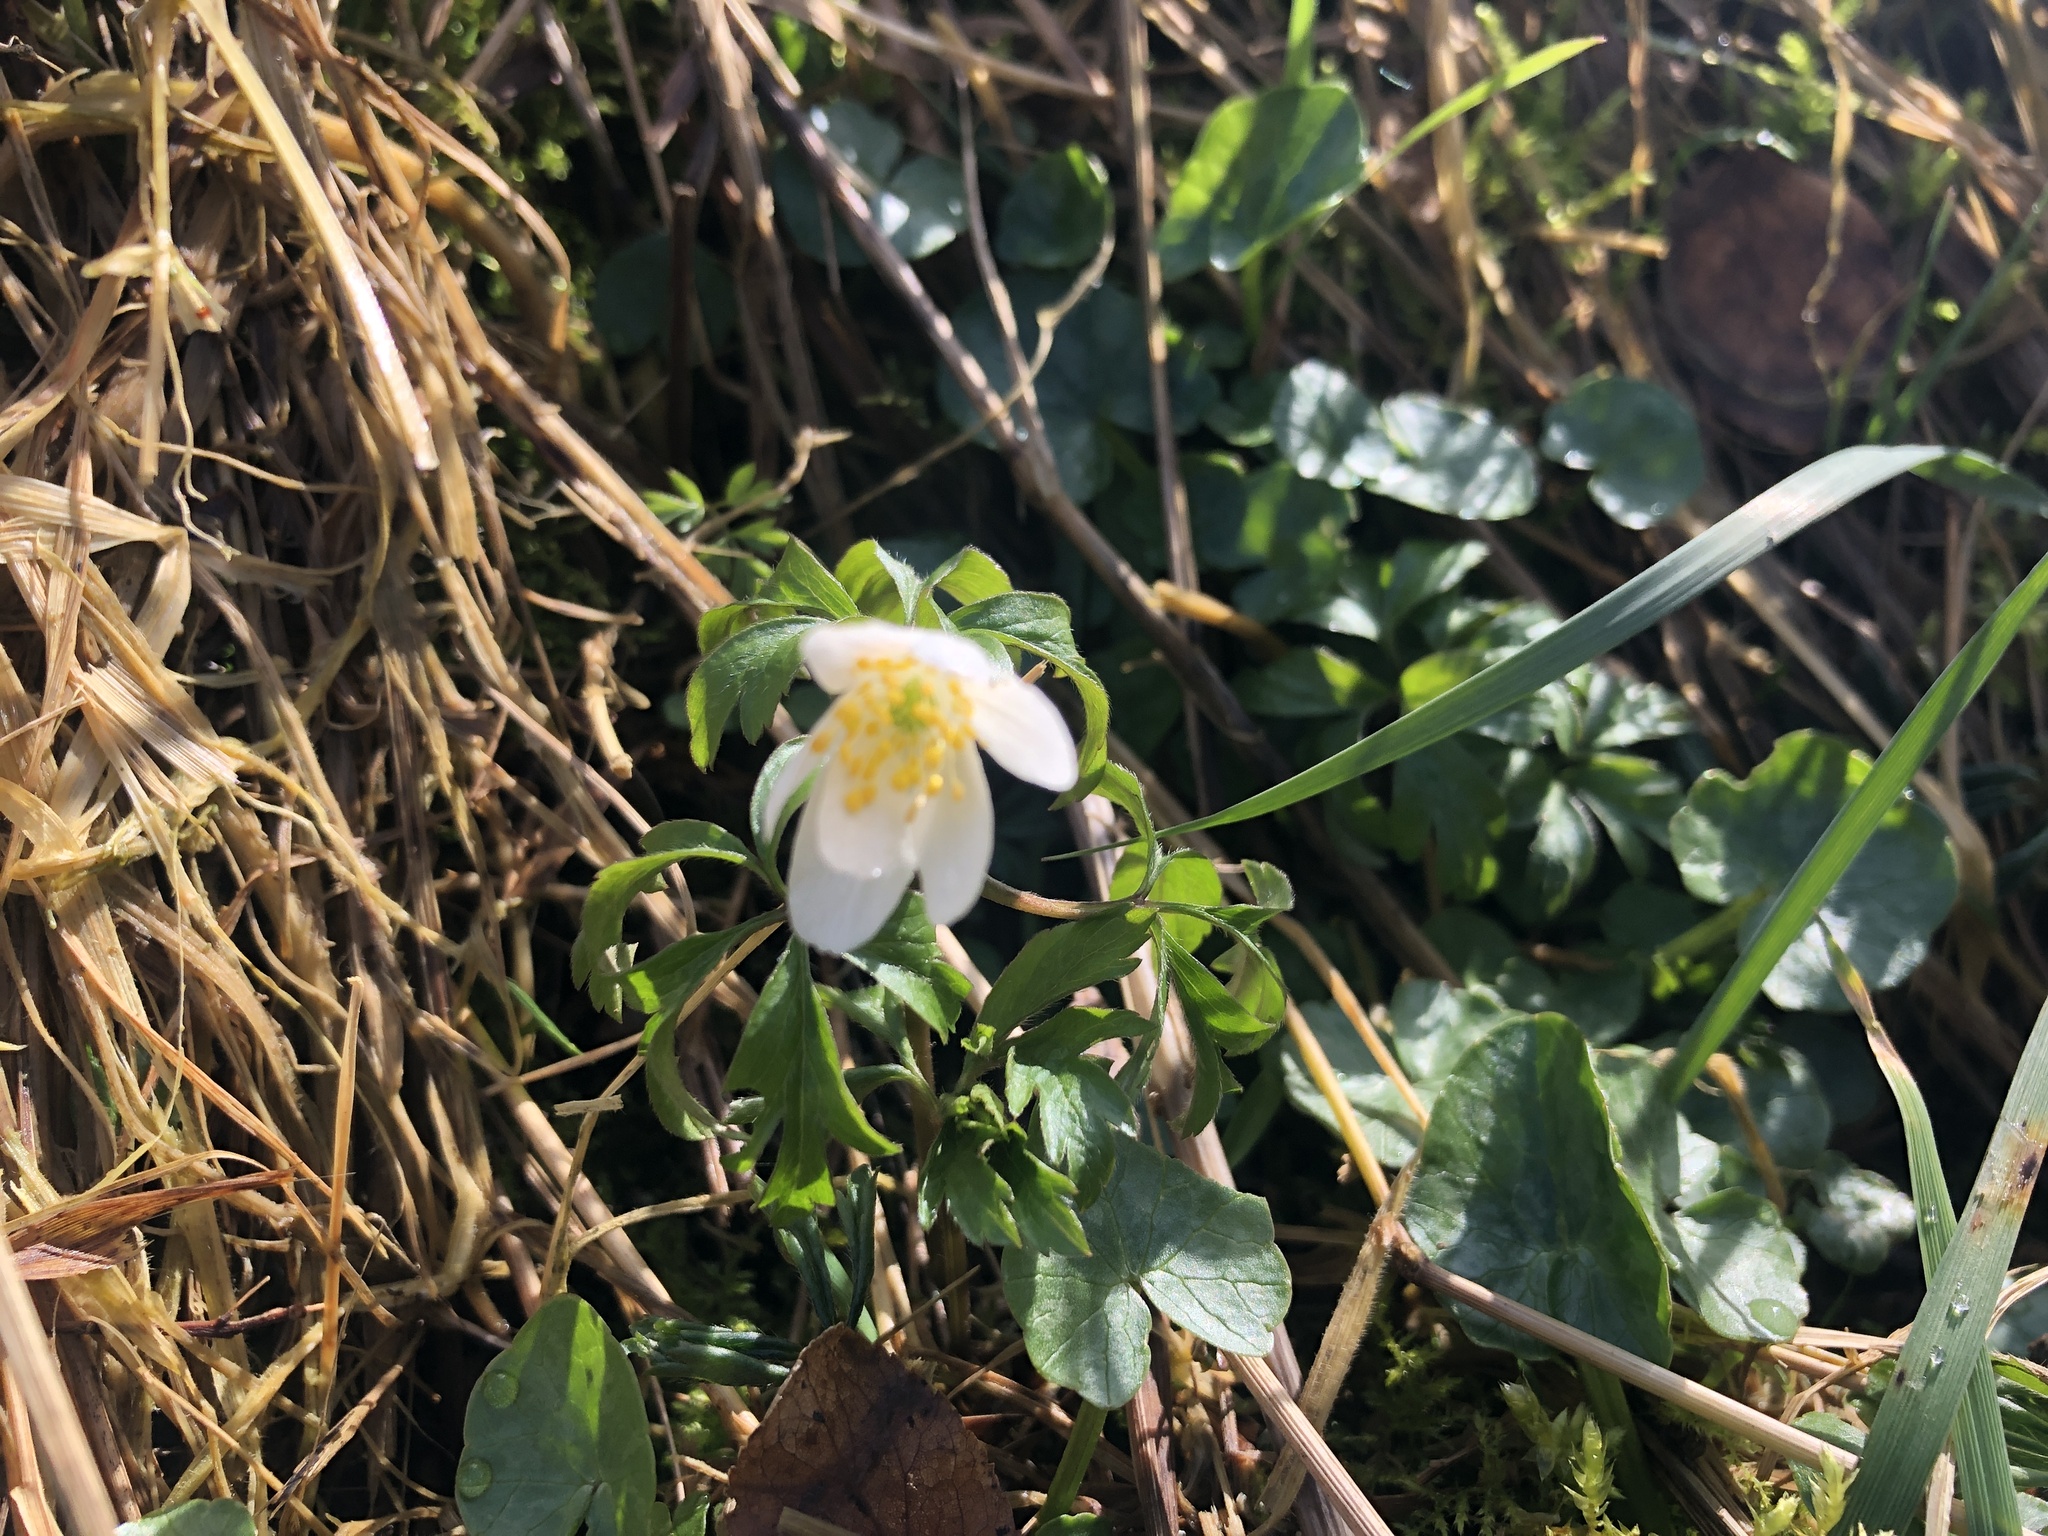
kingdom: Plantae
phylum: Tracheophyta
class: Magnoliopsida
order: Ranunculales
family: Ranunculaceae
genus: Anemone
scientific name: Anemone nemorosa
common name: Wood anemone
